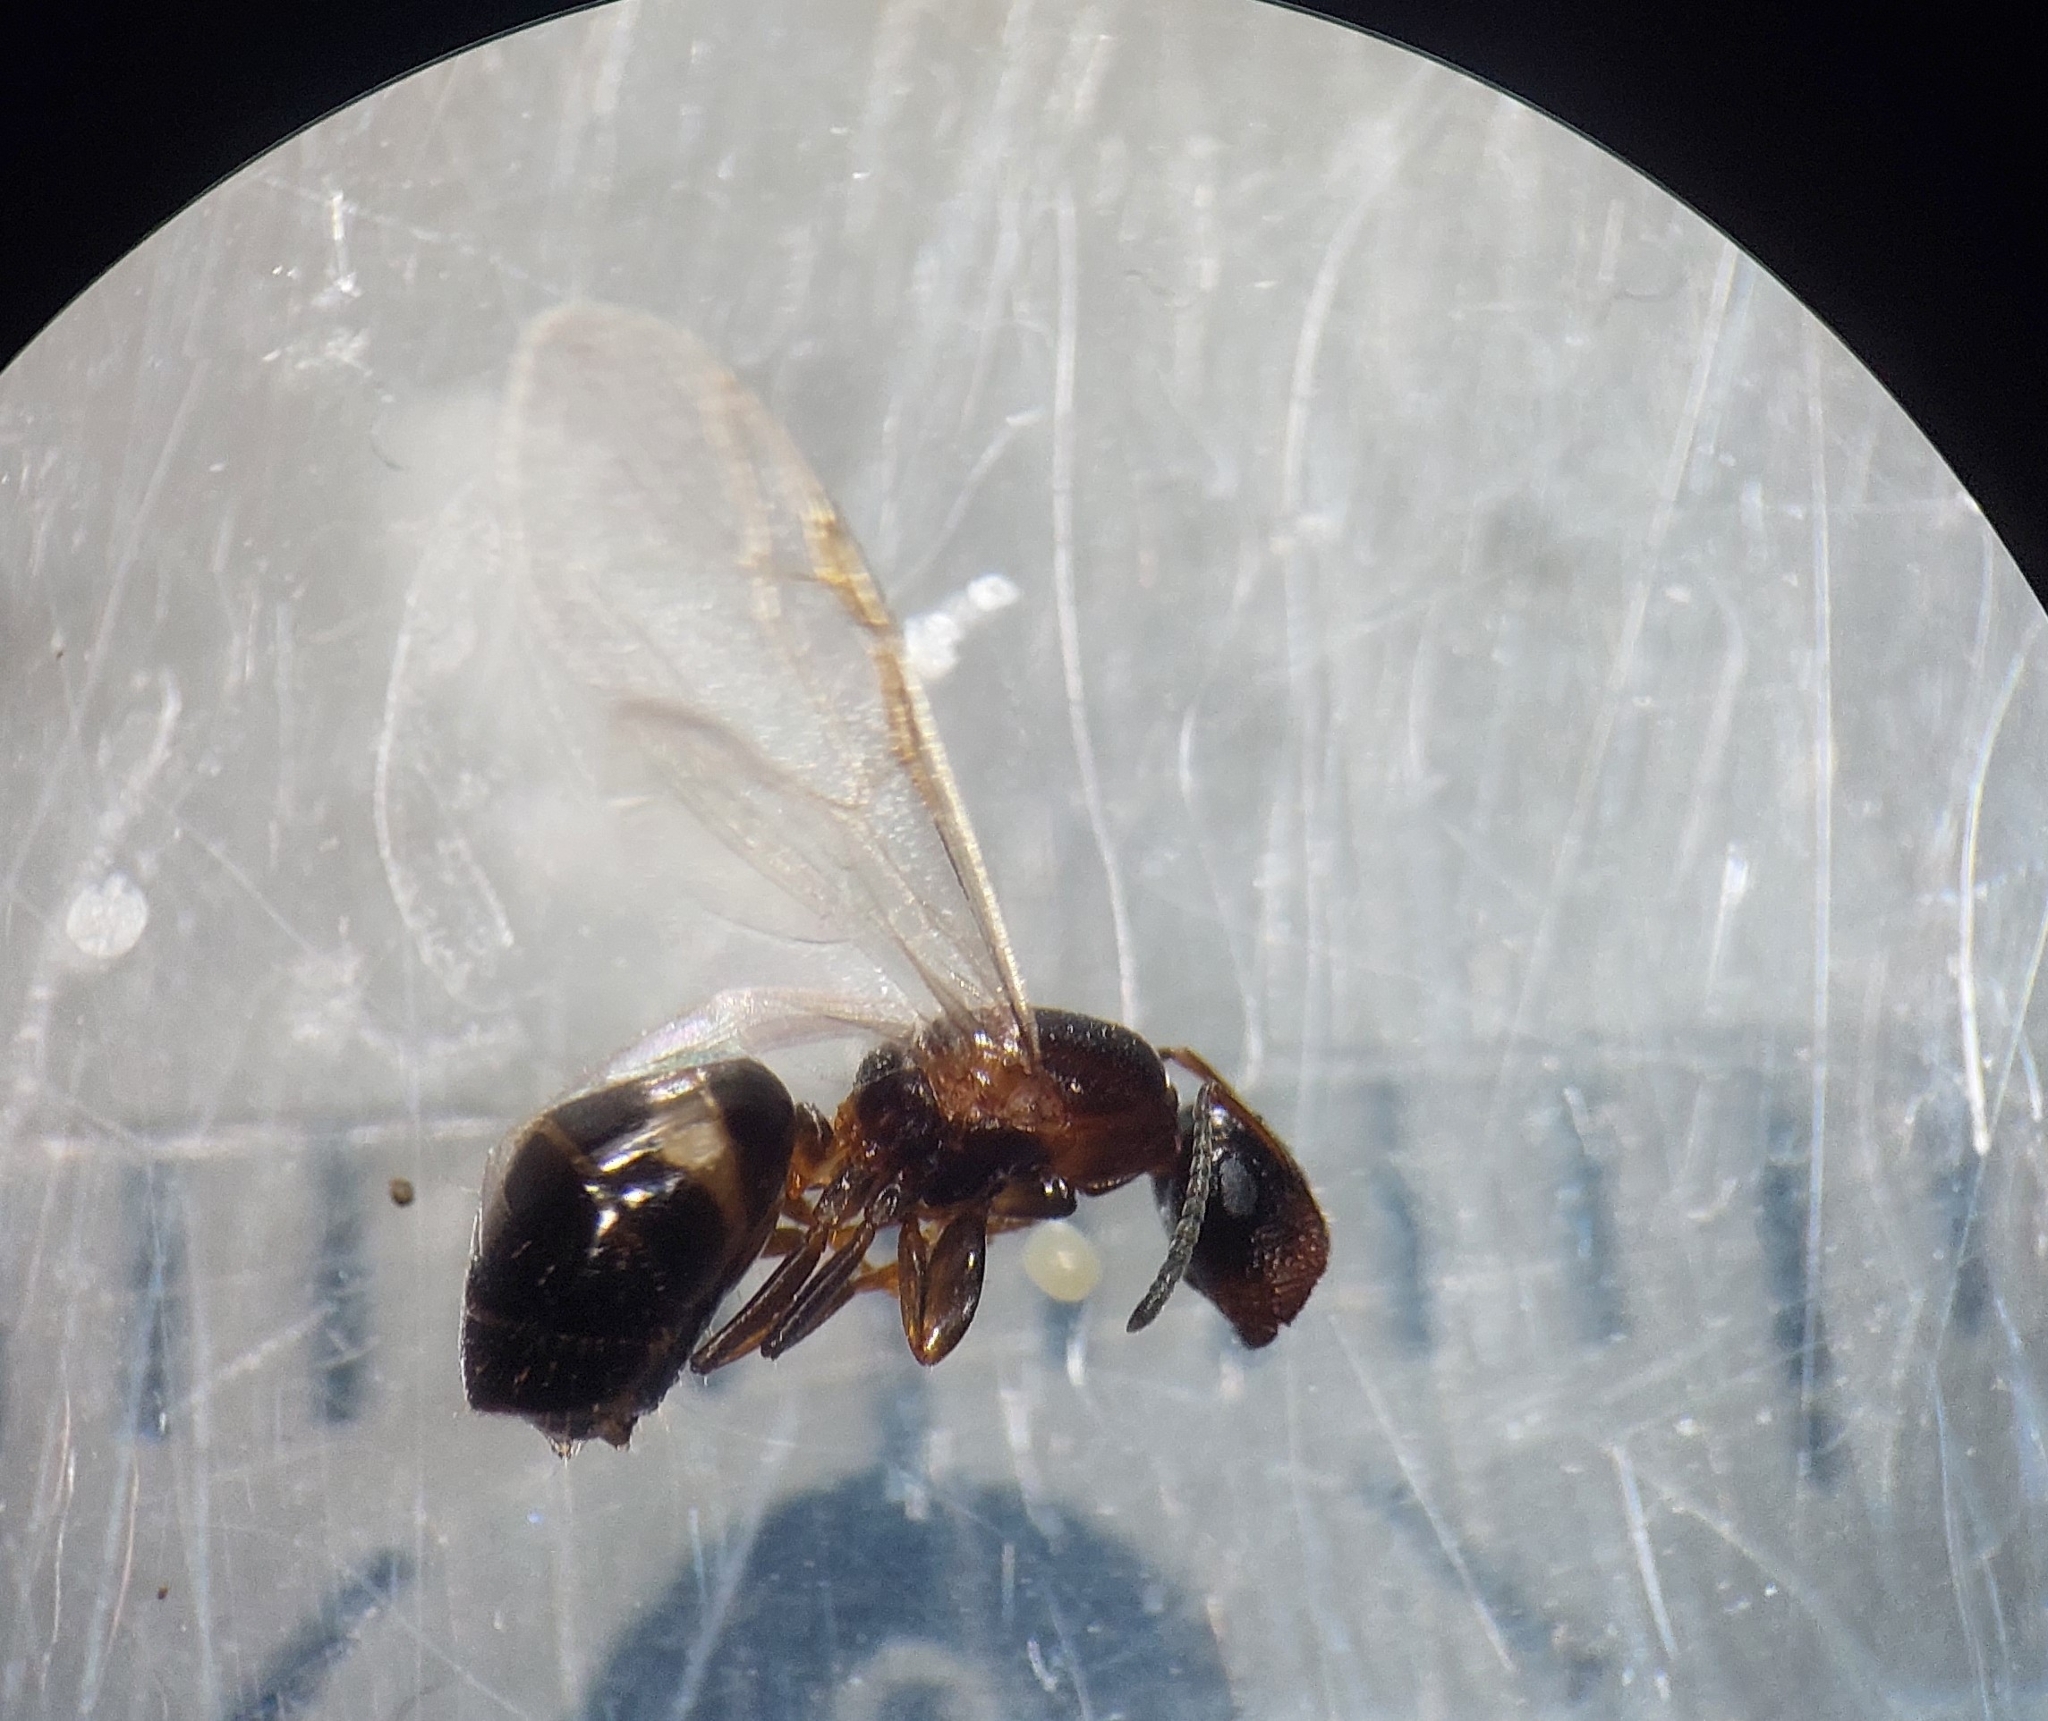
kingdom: Animalia
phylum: Arthropoda
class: Insecta
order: Hymenoptera
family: Formicidae
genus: Camponotus
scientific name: Camponotus truncatus
